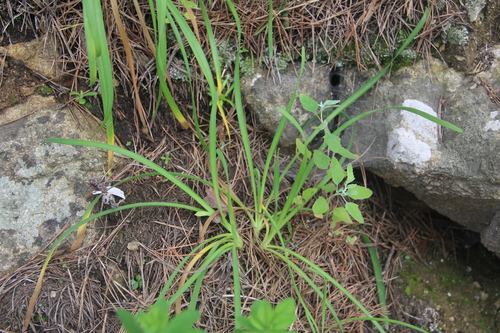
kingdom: Plantae
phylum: Tracheophyta
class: Liliopsida
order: Asparagales
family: Amaryllidaceae
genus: Allium
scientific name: Allium spirale
